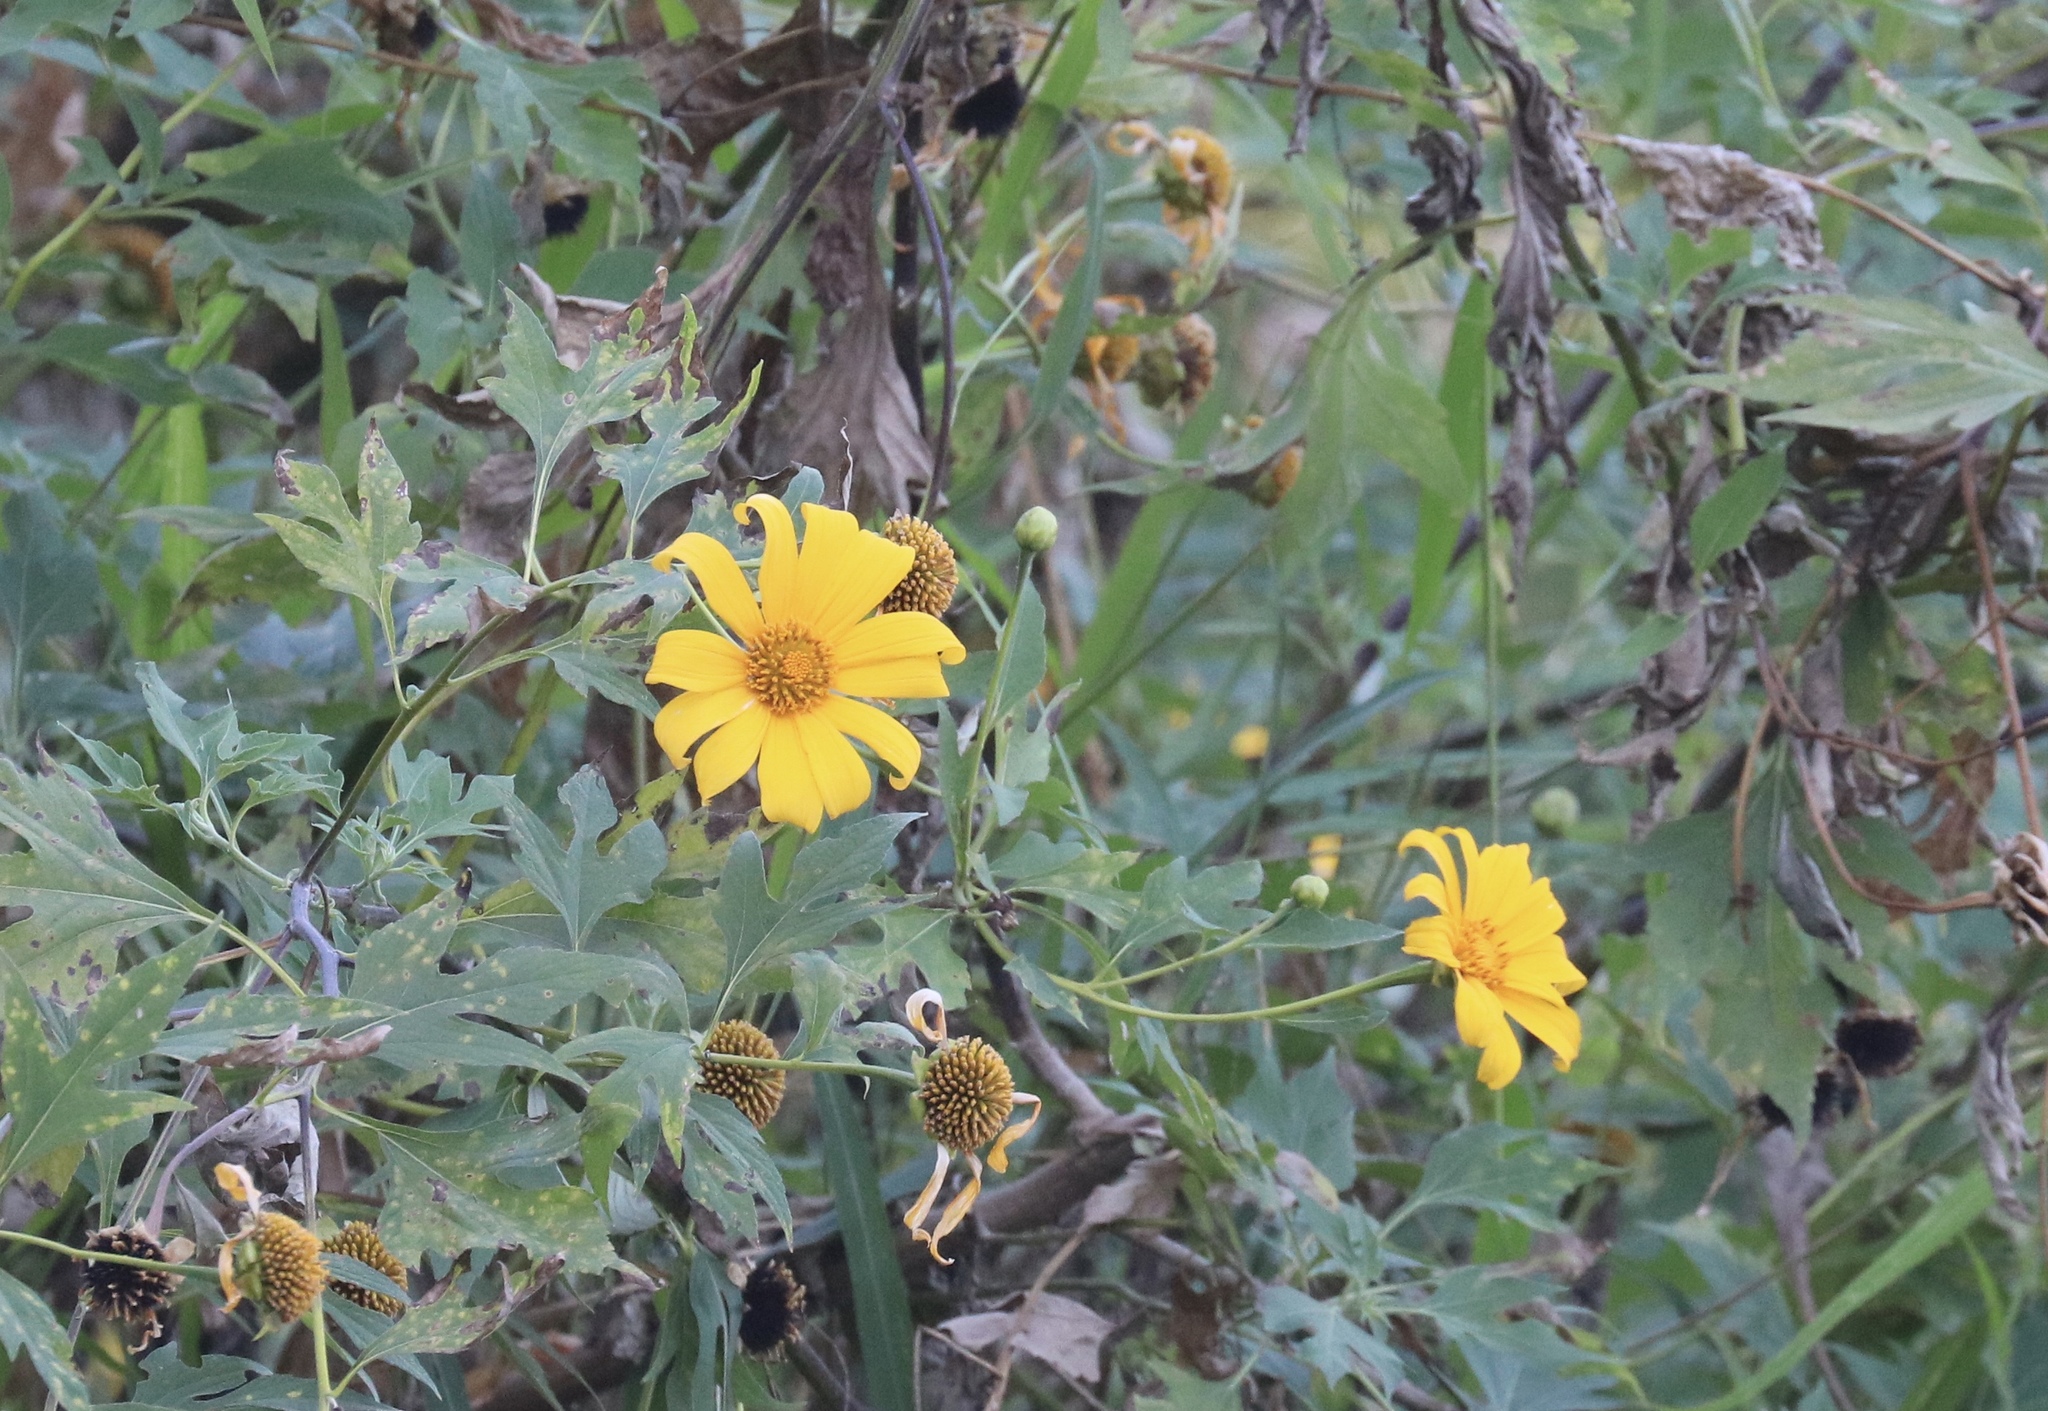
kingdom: Plantae
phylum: Tracheophyta
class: Magnoliopsida
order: Asterales
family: Asteraceae
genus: Tithonia
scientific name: Tithonia diversifolia
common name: Tree marigold
